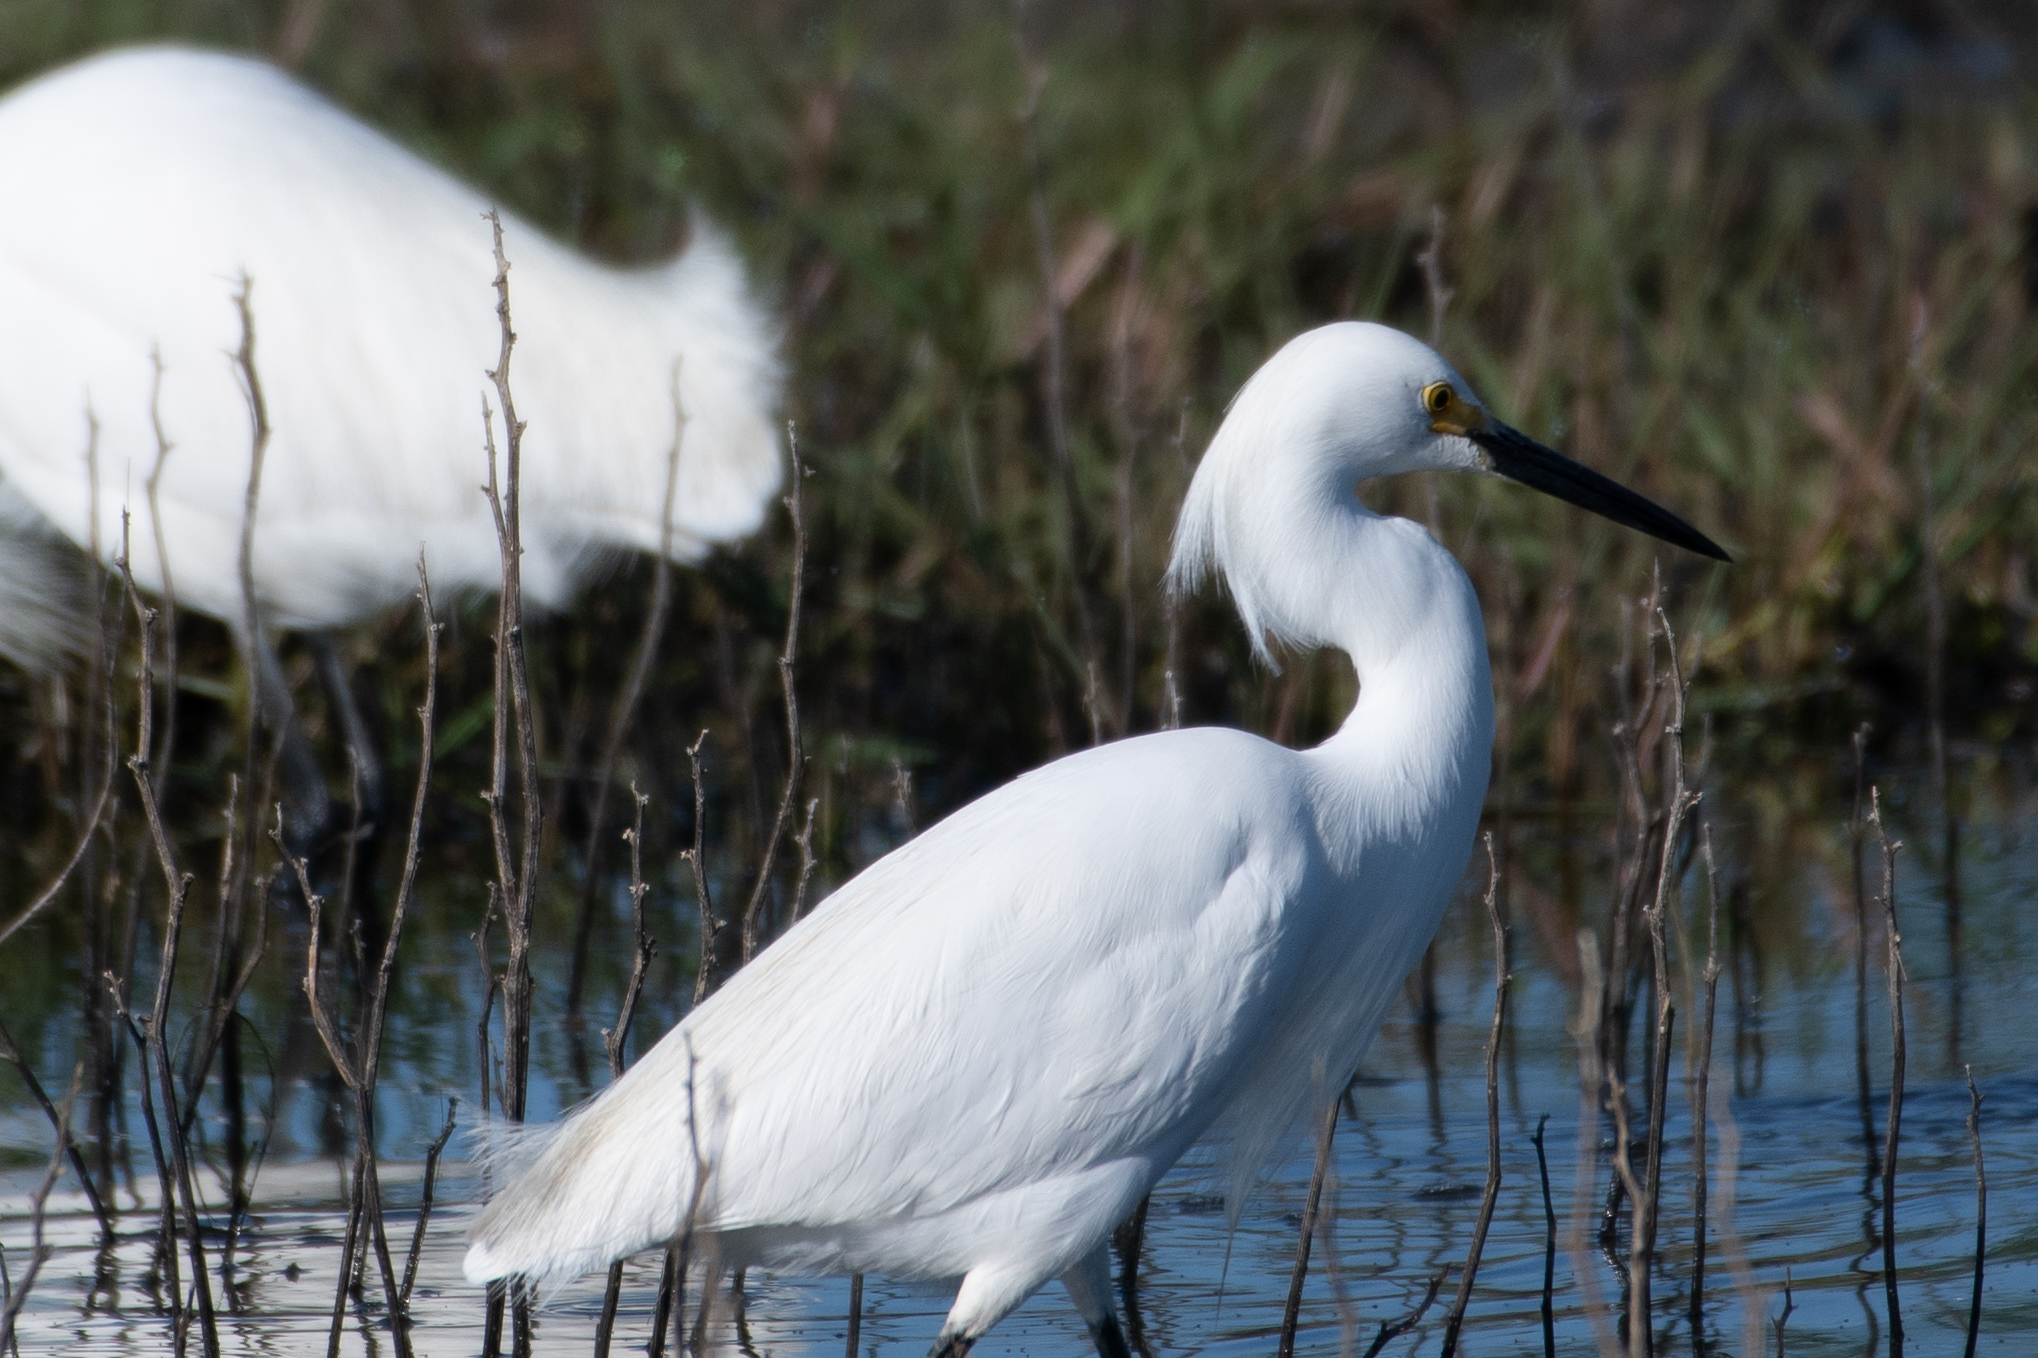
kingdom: Animalia
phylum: Chordata
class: Aves
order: Pelecaniformes
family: Ardeidae
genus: Egretta
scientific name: Egretta thula
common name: Snowy egret
